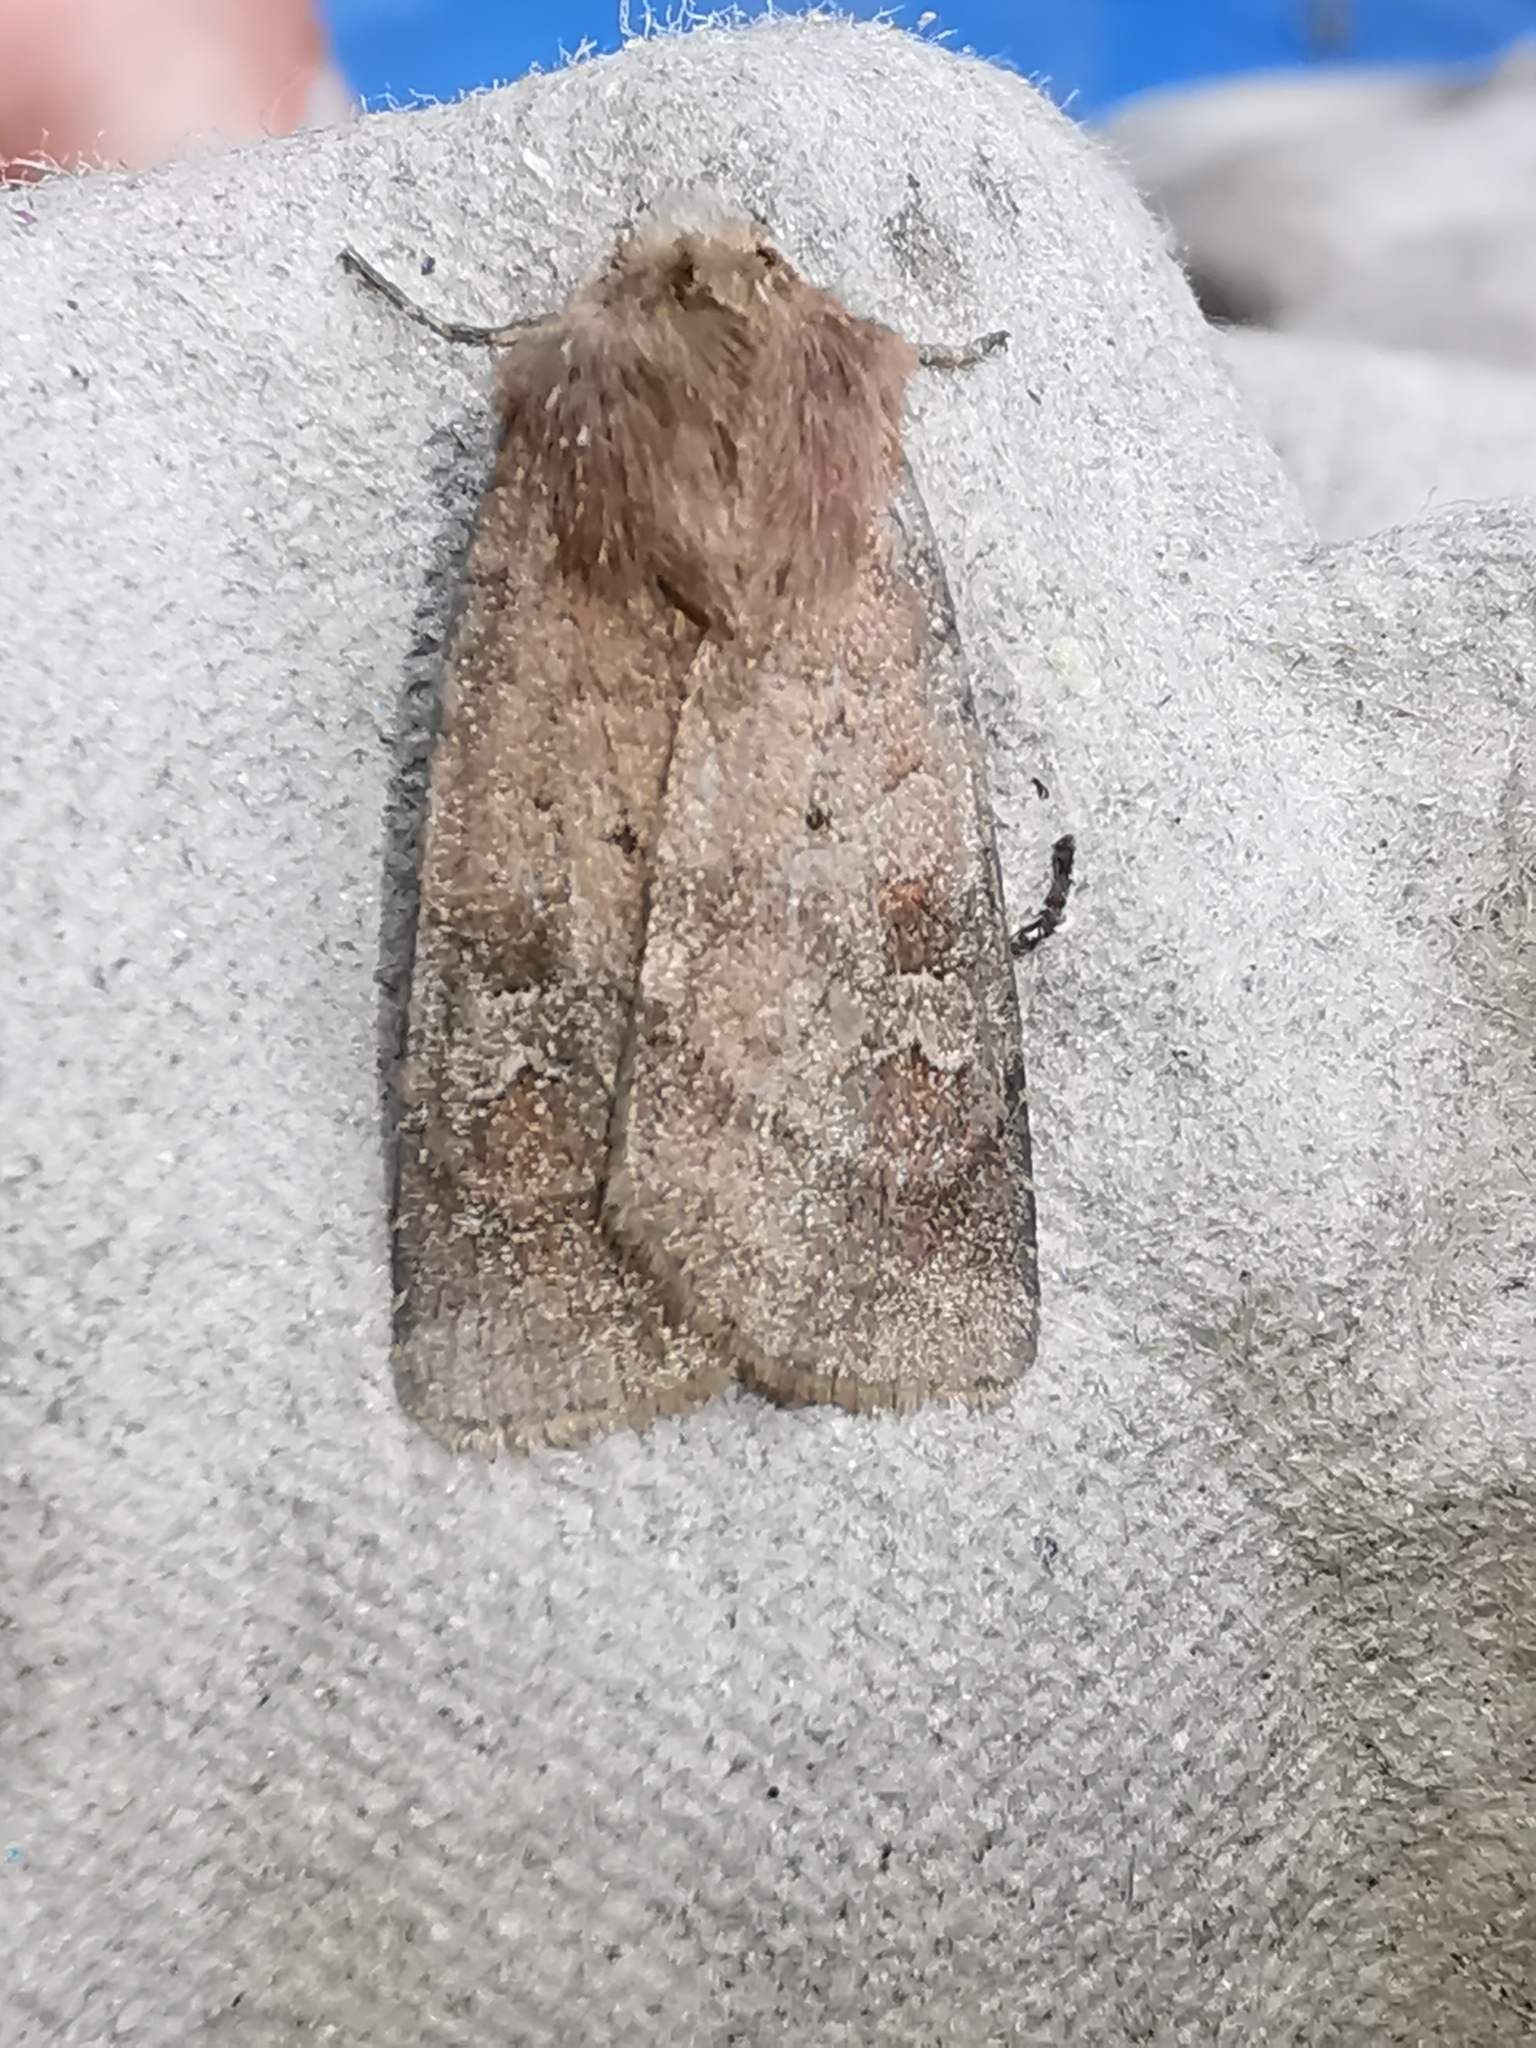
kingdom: Animalia
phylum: Arthropoda
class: Insecta
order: Lepidoptera
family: Noctuidae
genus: Diarsia
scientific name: Diarsia rubi
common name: Small square-spot
